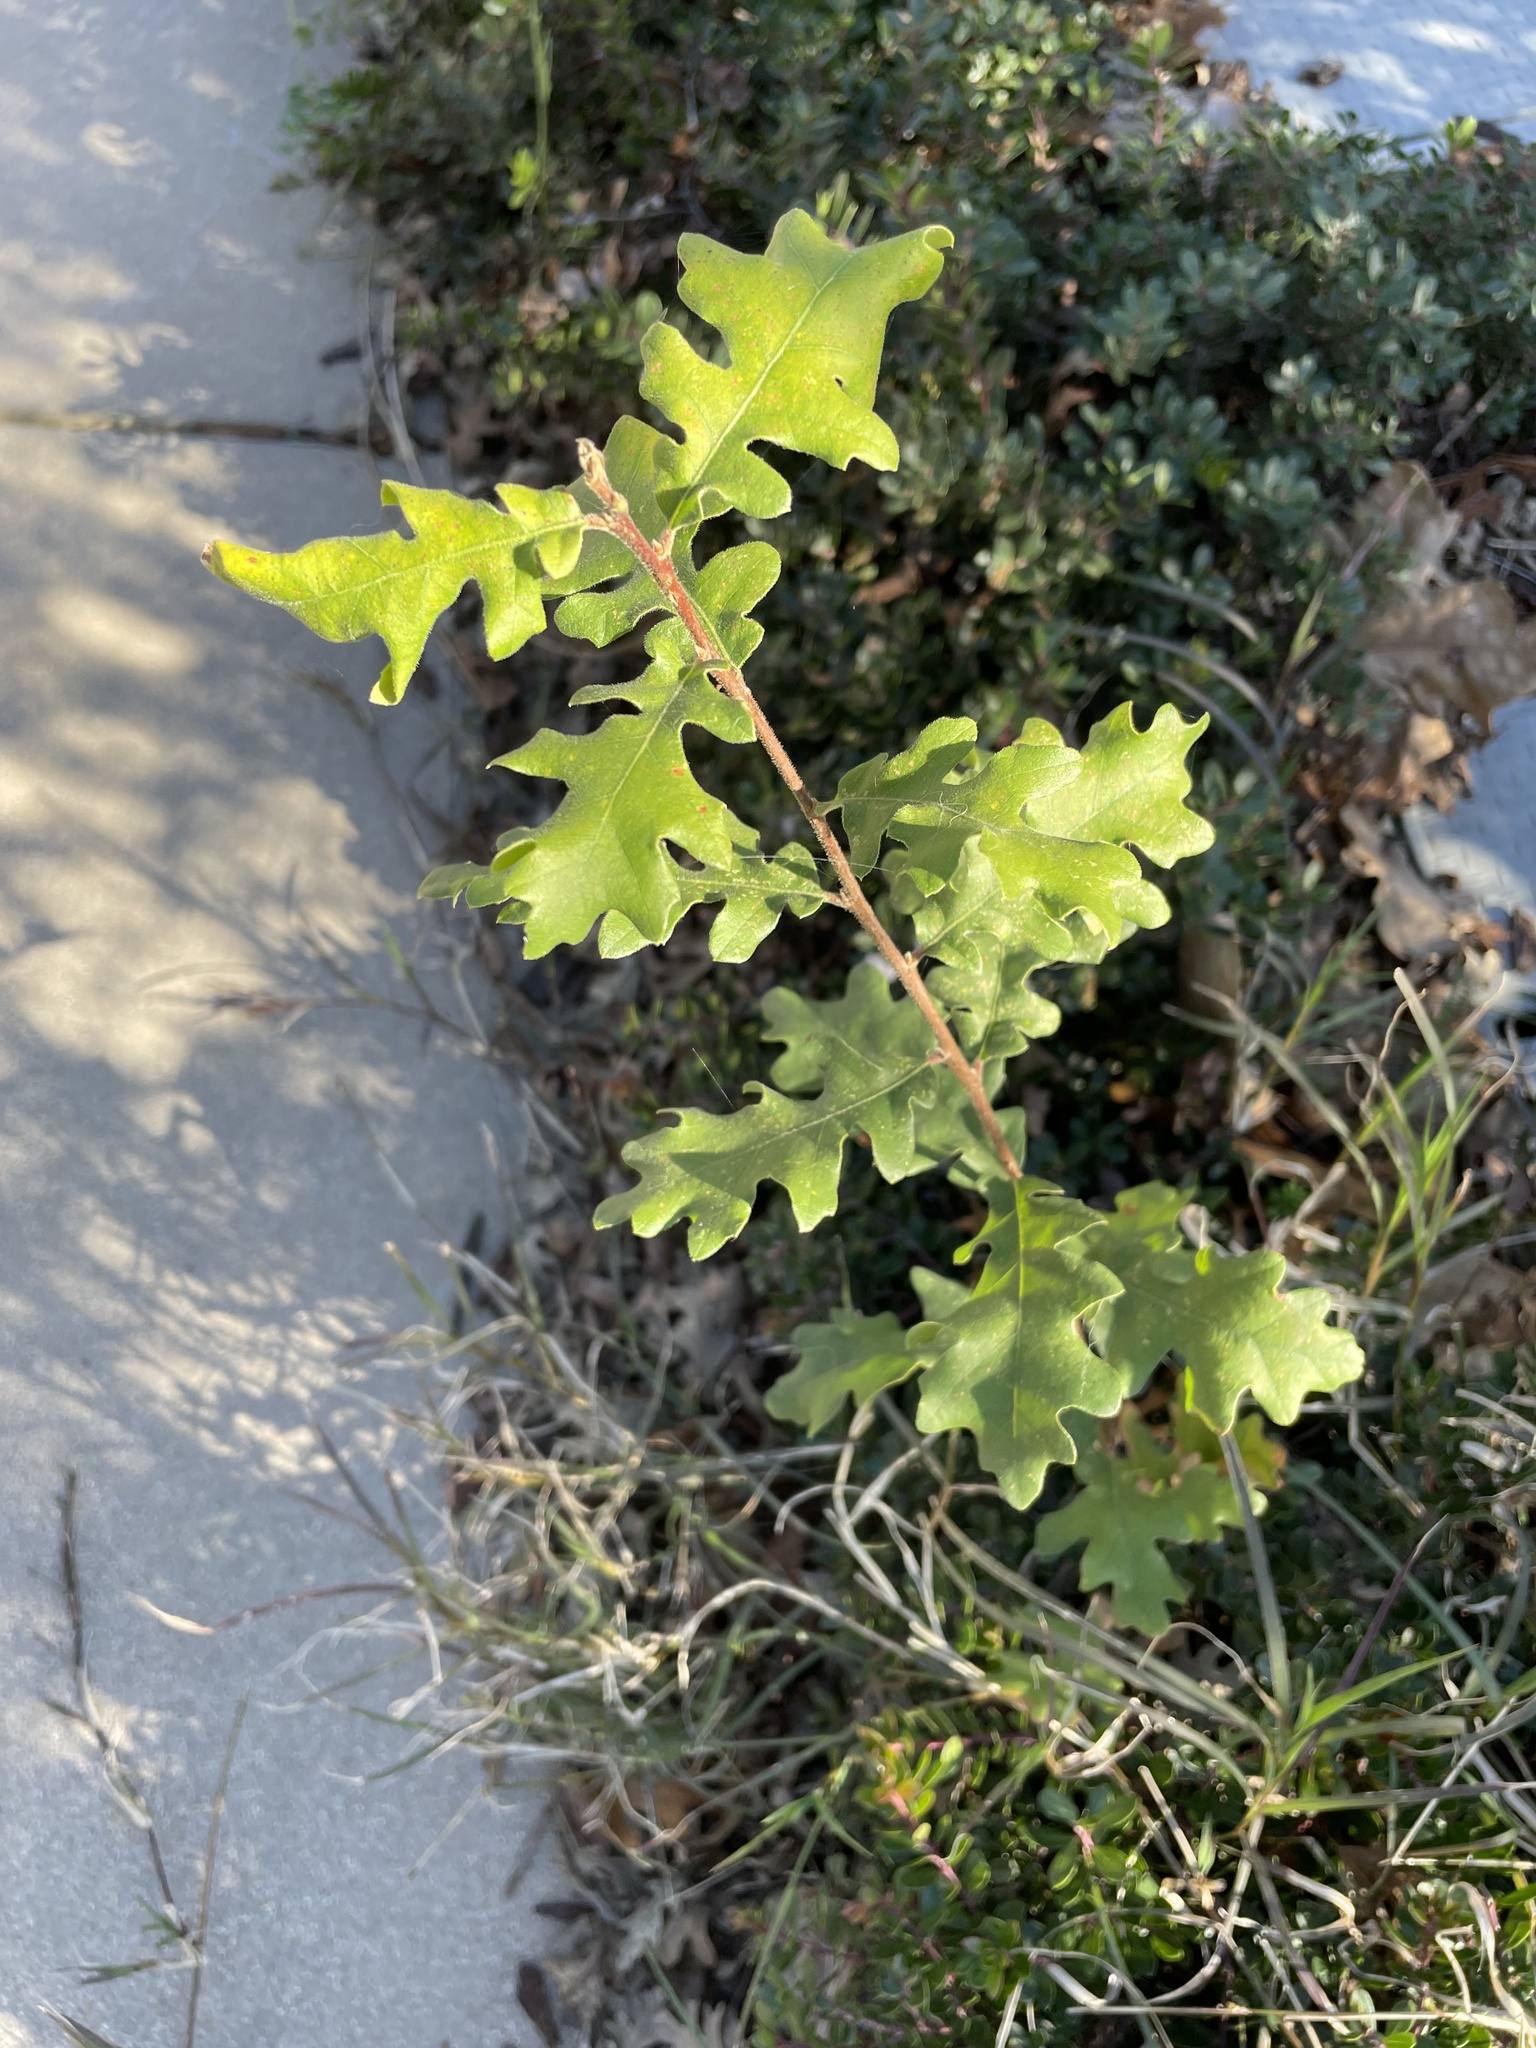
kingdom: Plantae
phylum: Tracheophyta
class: Magnoliopsida
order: Fagales
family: Fagaceae
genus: Quercus
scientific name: Quercus lobata
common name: Valley oak
